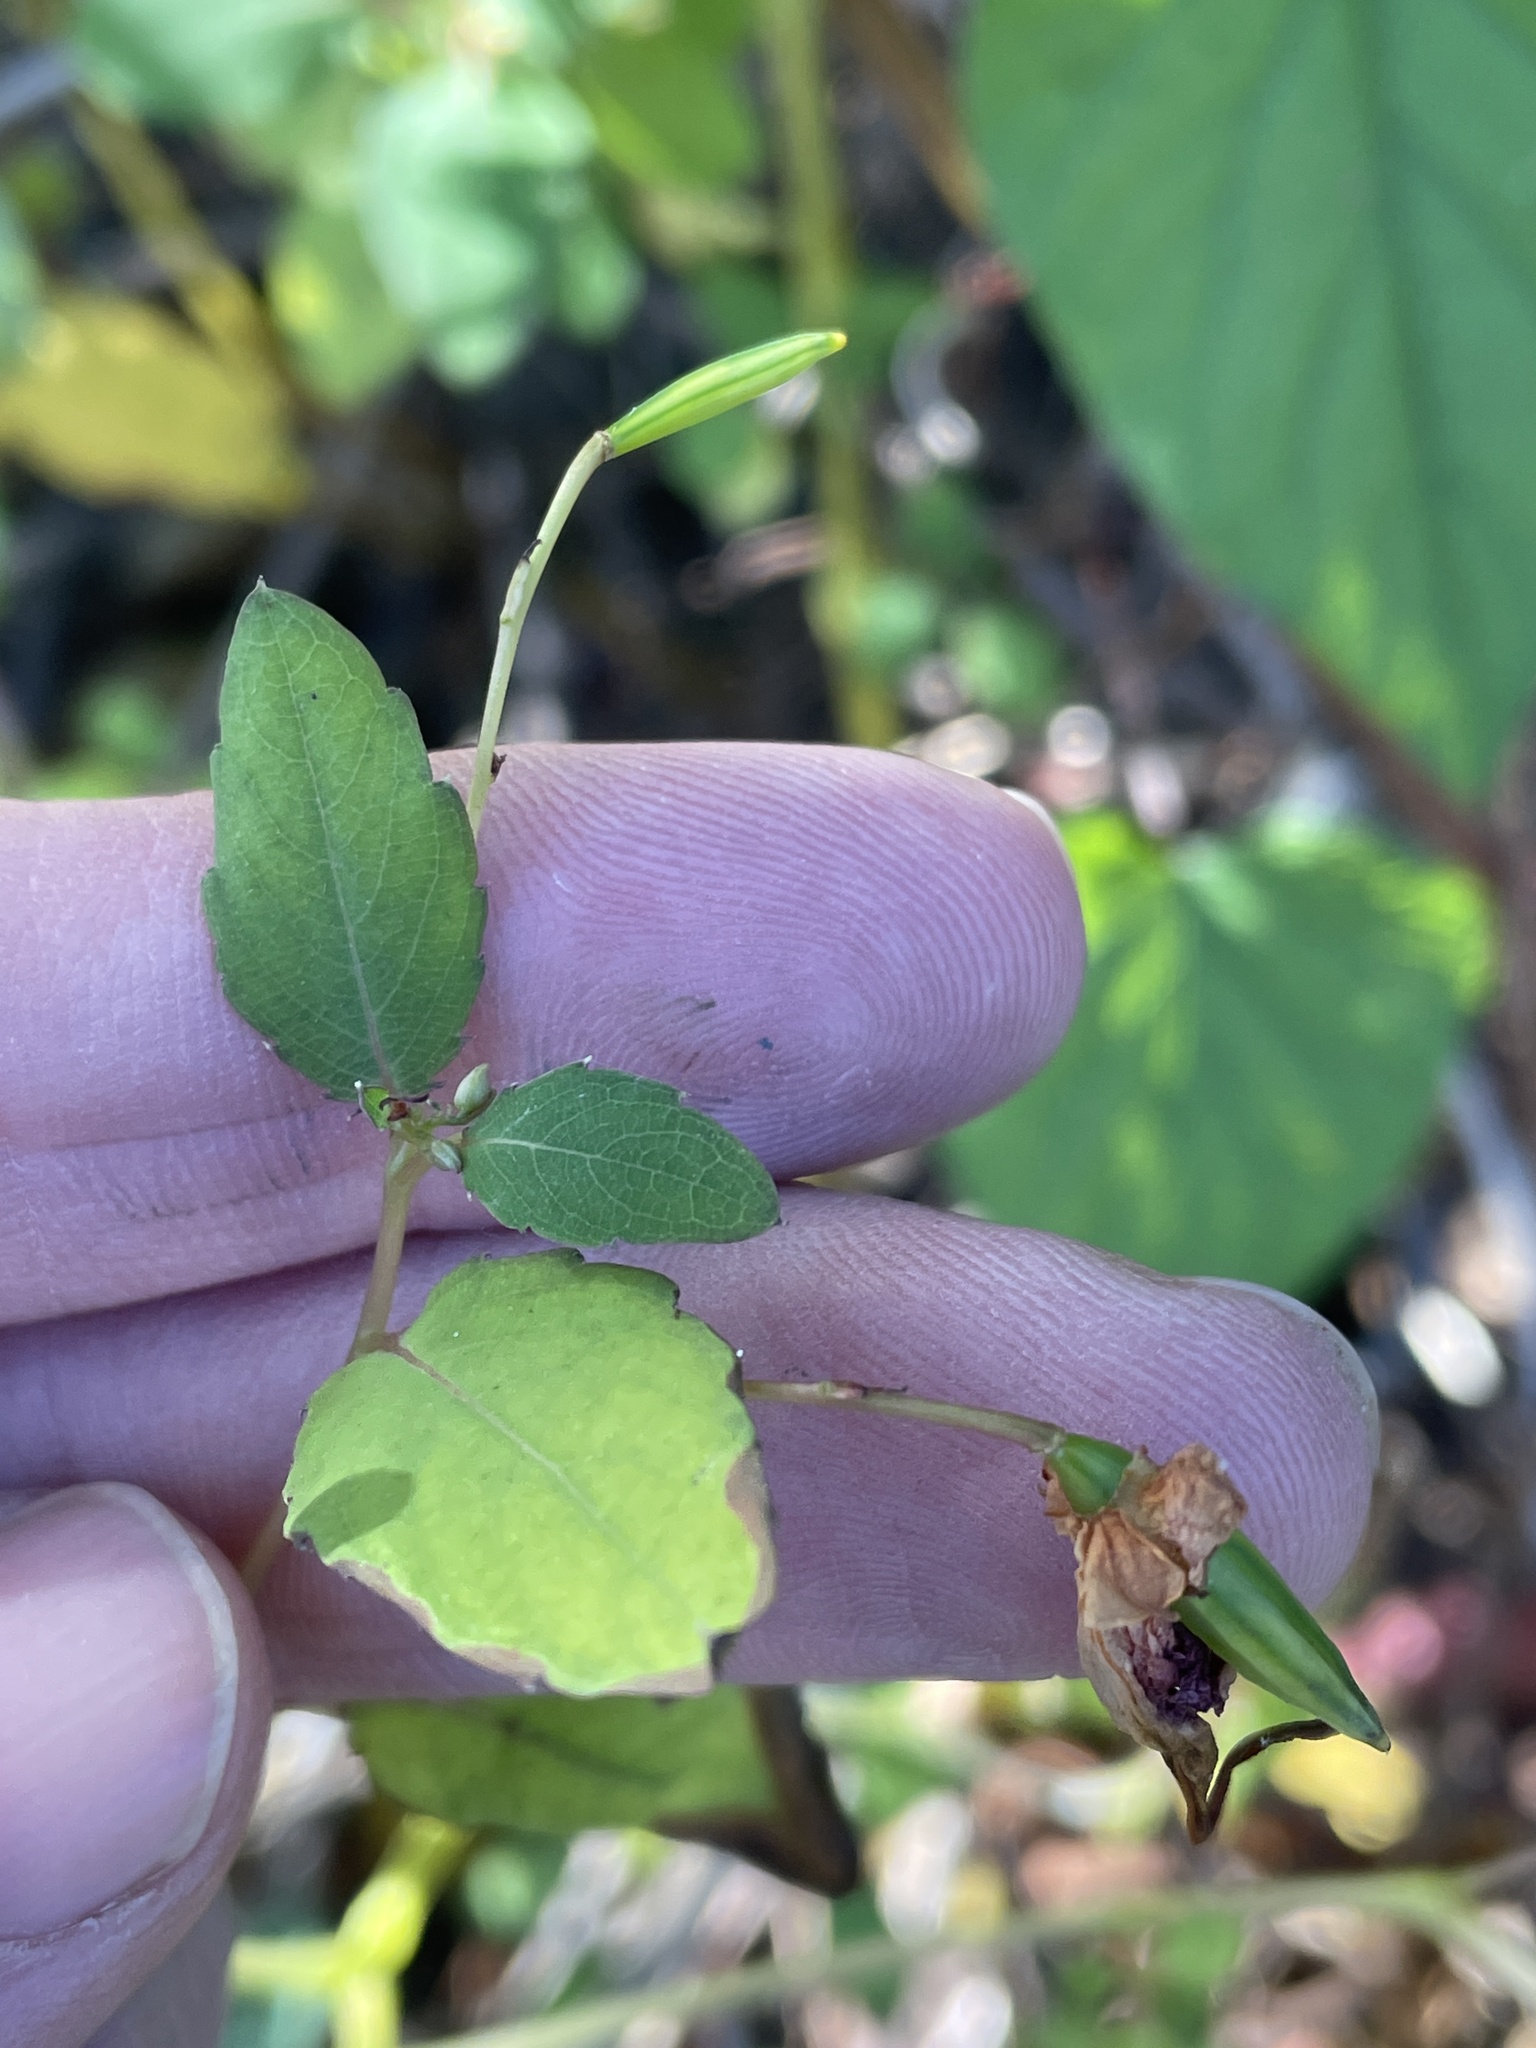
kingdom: Plantae
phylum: Tracheophyta
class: Magnoliopsida
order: Ericales
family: Balsaminaceae
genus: Impatiens
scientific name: Impatiens capensis
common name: Orange balsam
